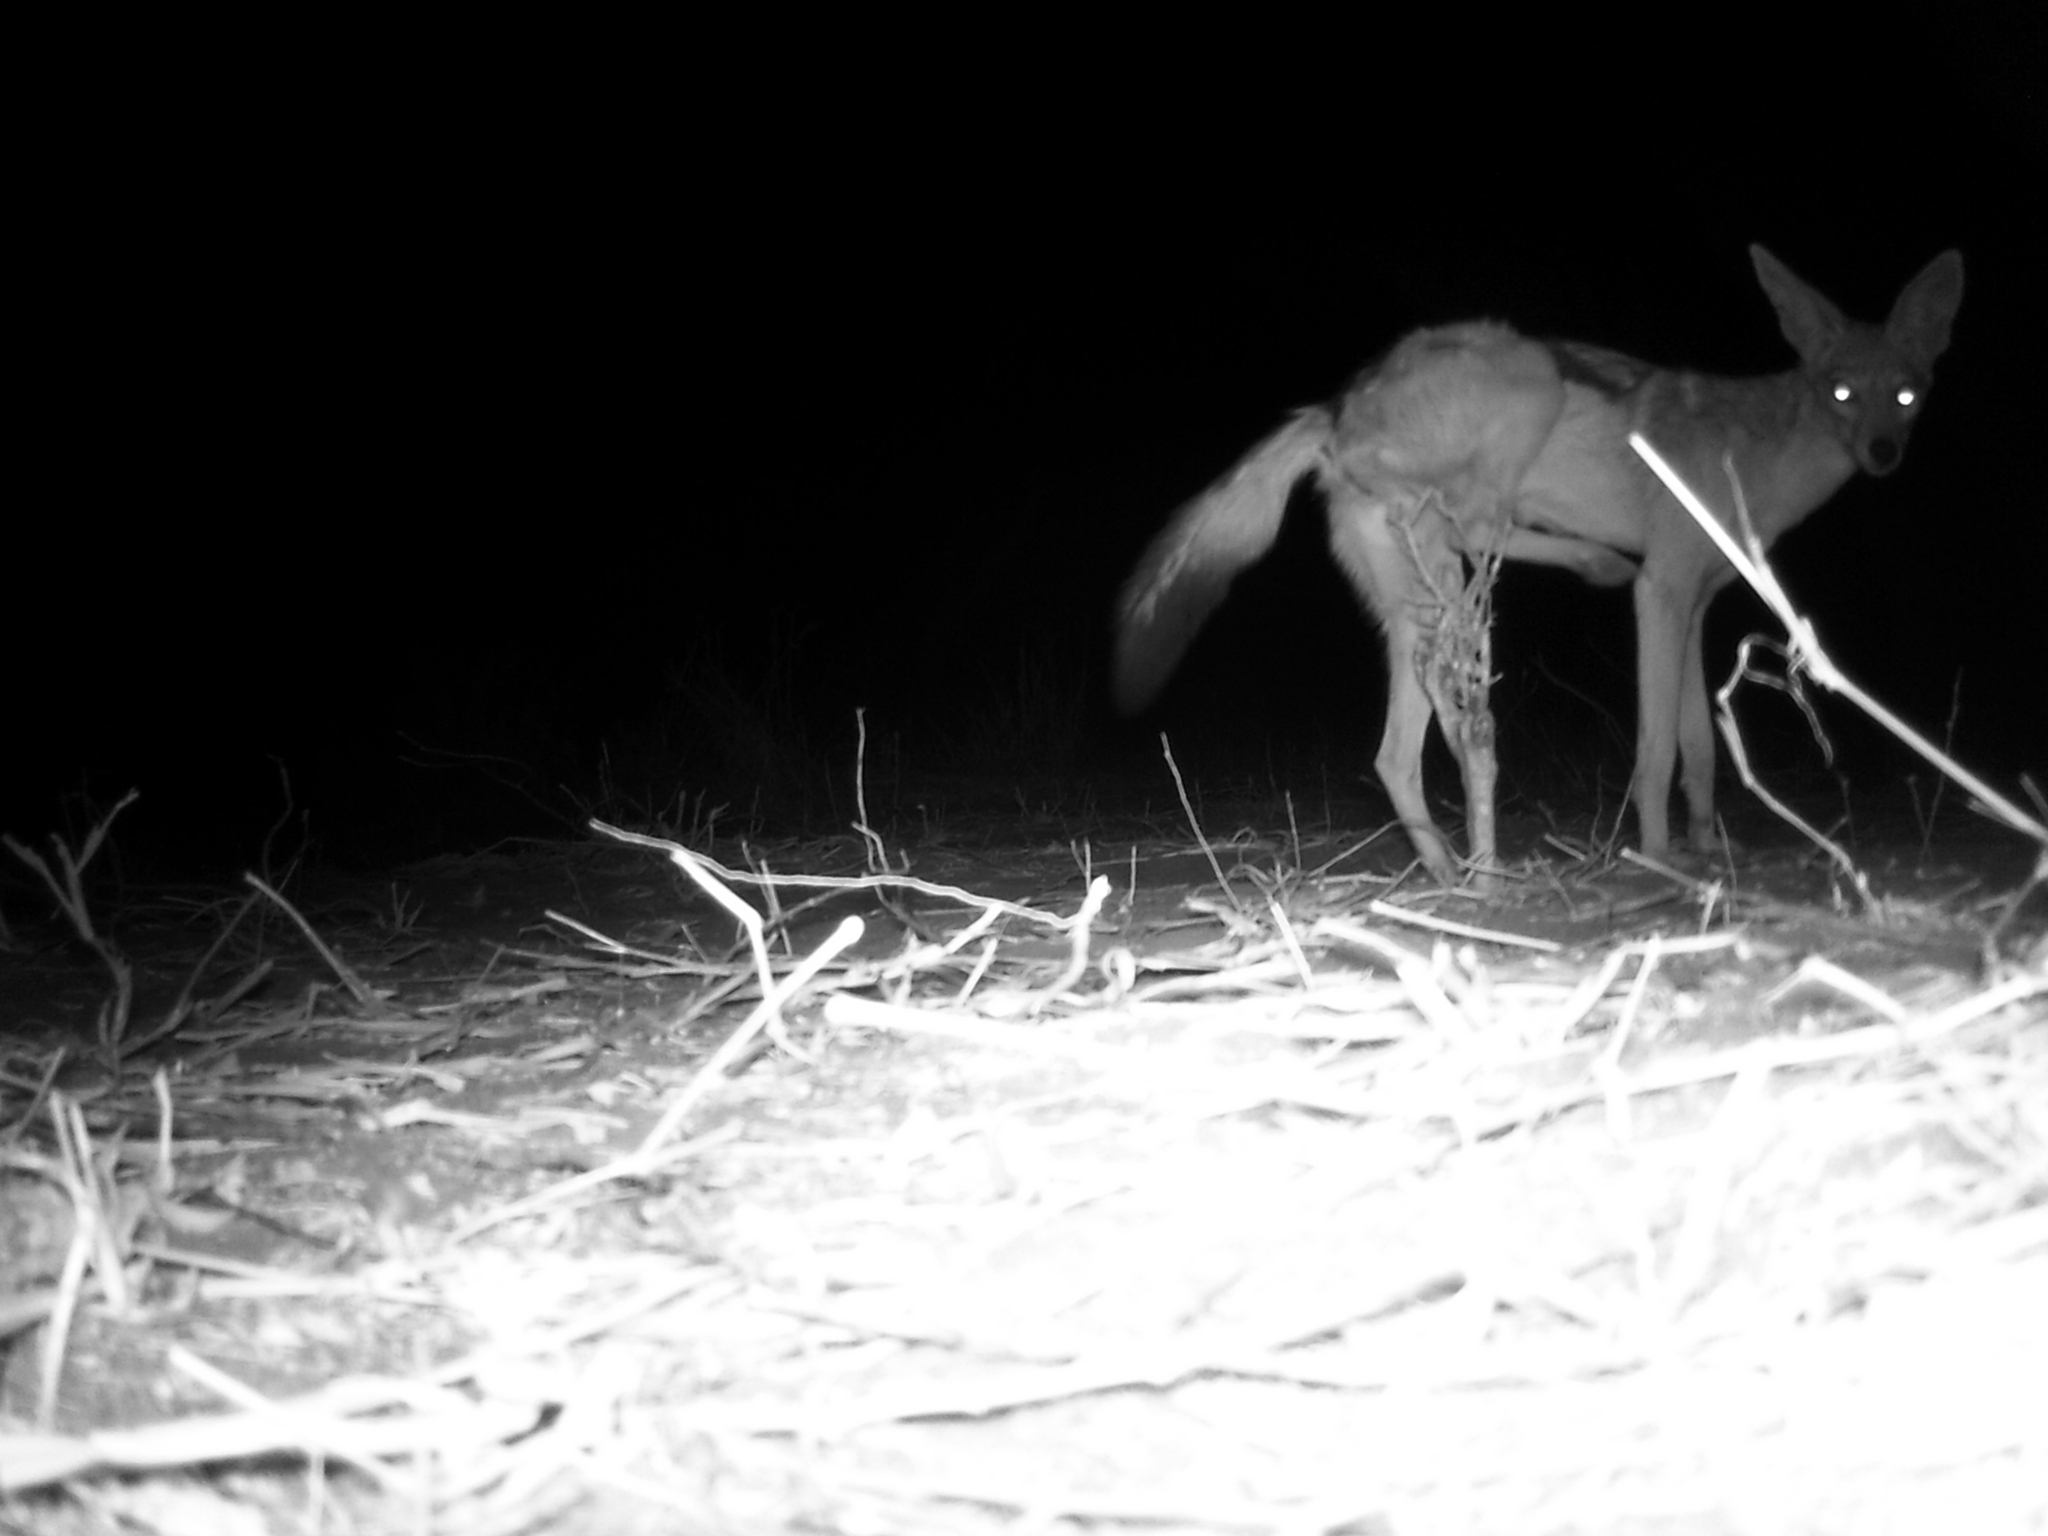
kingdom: Animalia
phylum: Chordata
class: Mammalia
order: Carnivora
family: Canidae
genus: Lupulella
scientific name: Lupulella
